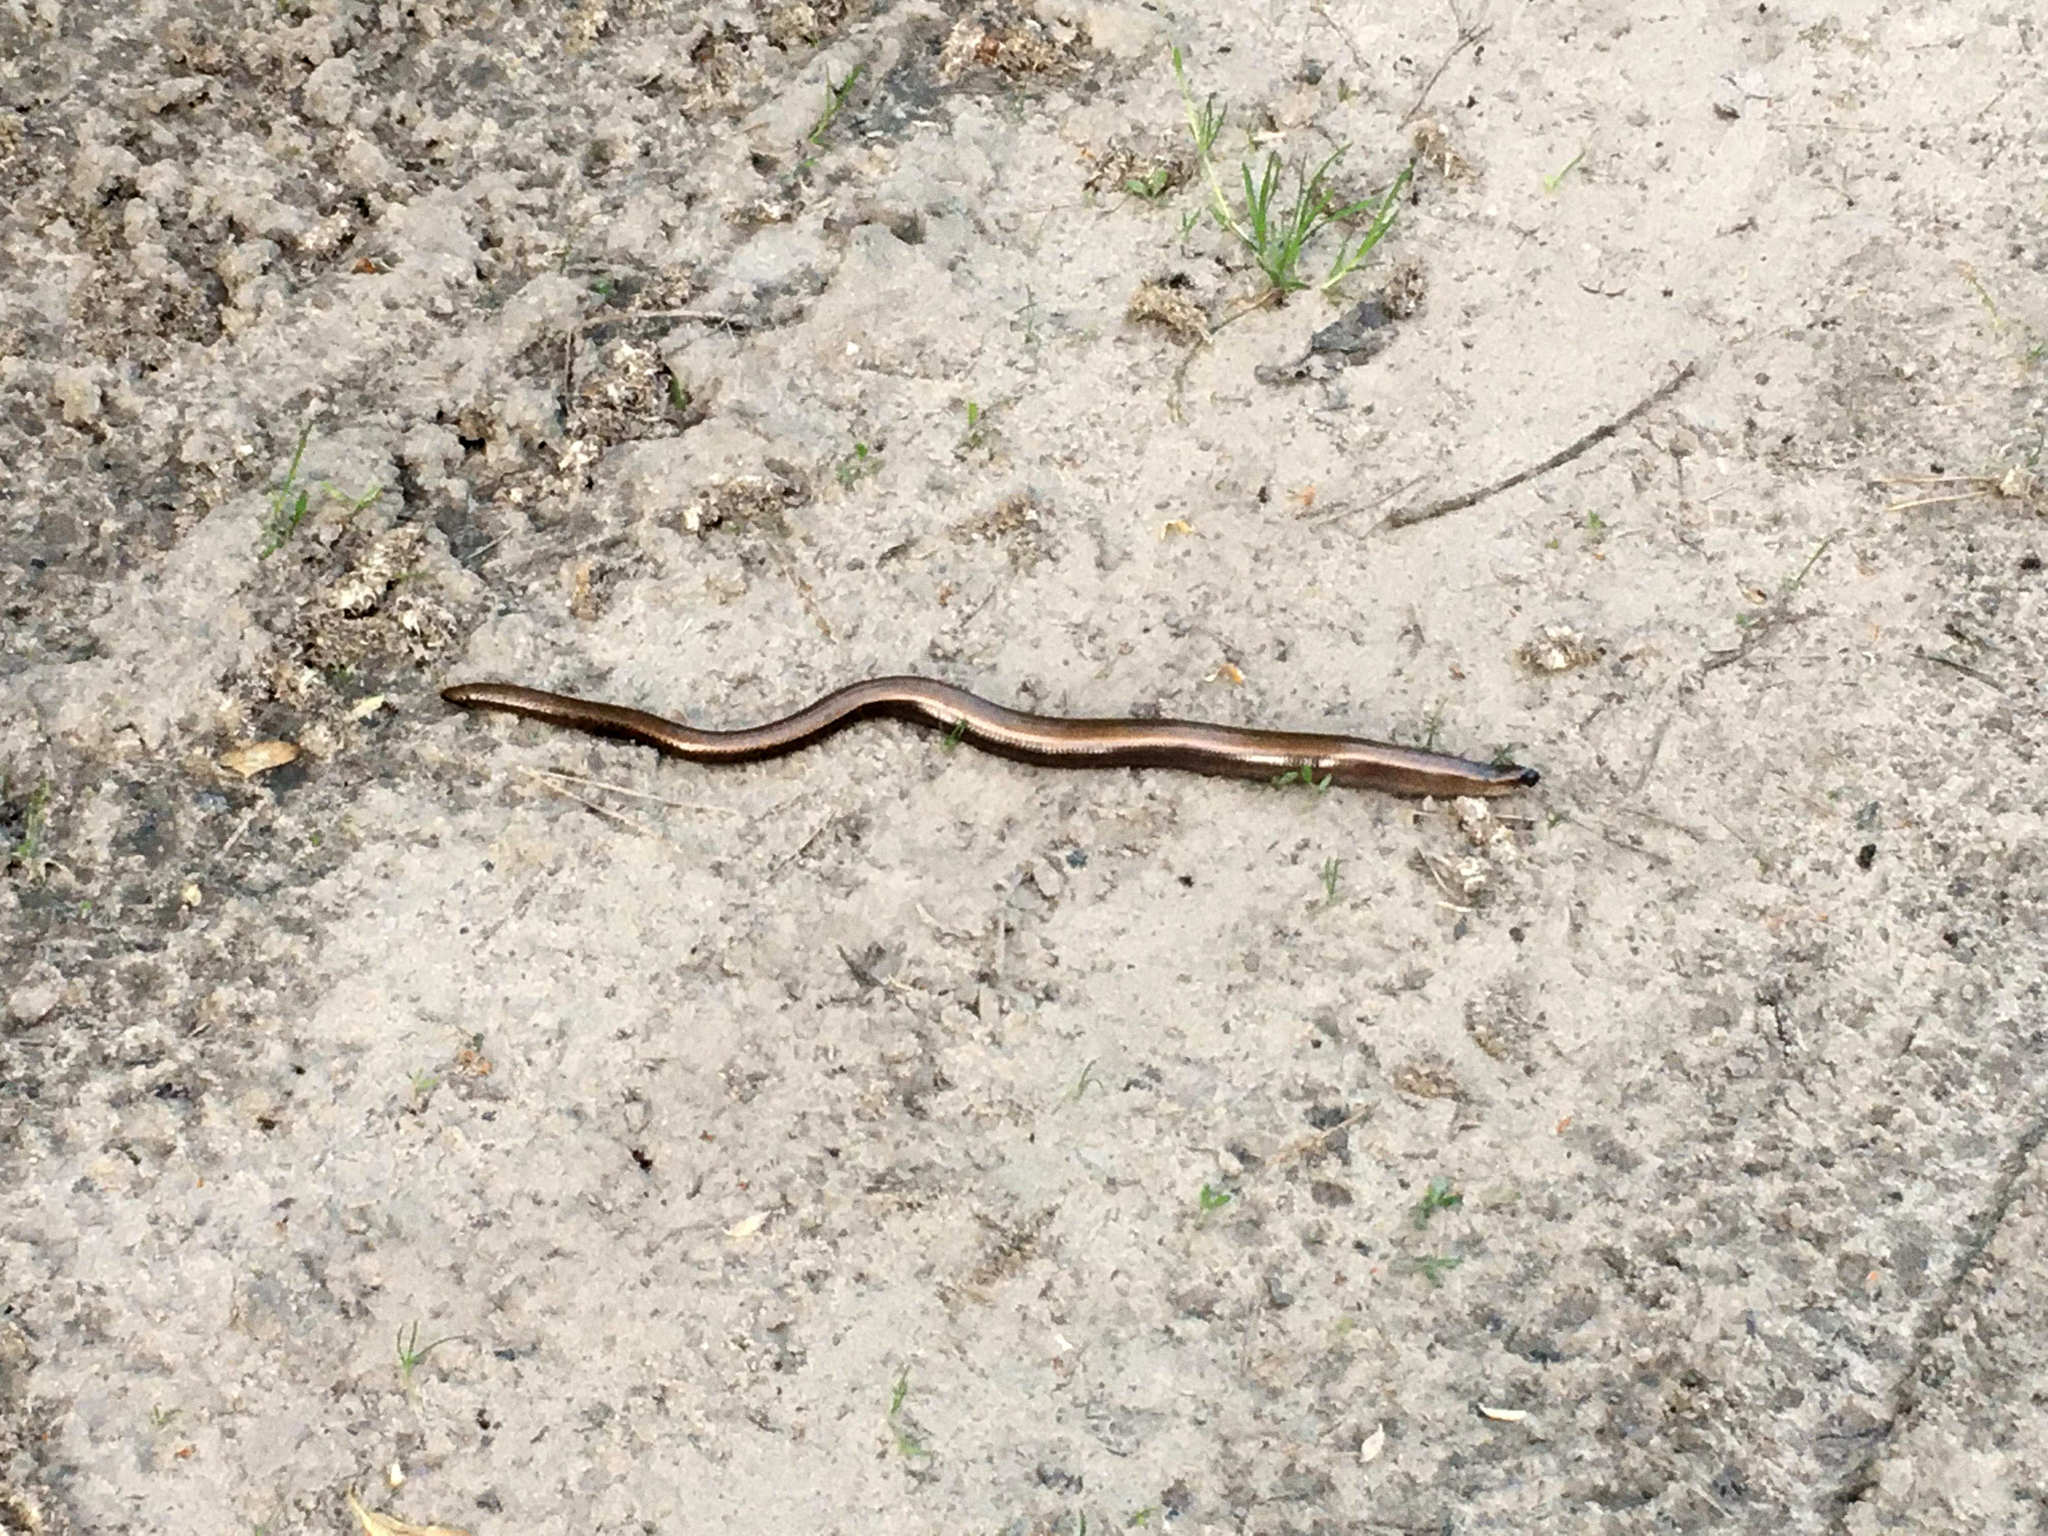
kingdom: Animalia
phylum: Chordata
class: Squamata
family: Anguidae
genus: Anguis
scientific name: Anguis colchica
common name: Slow worm
